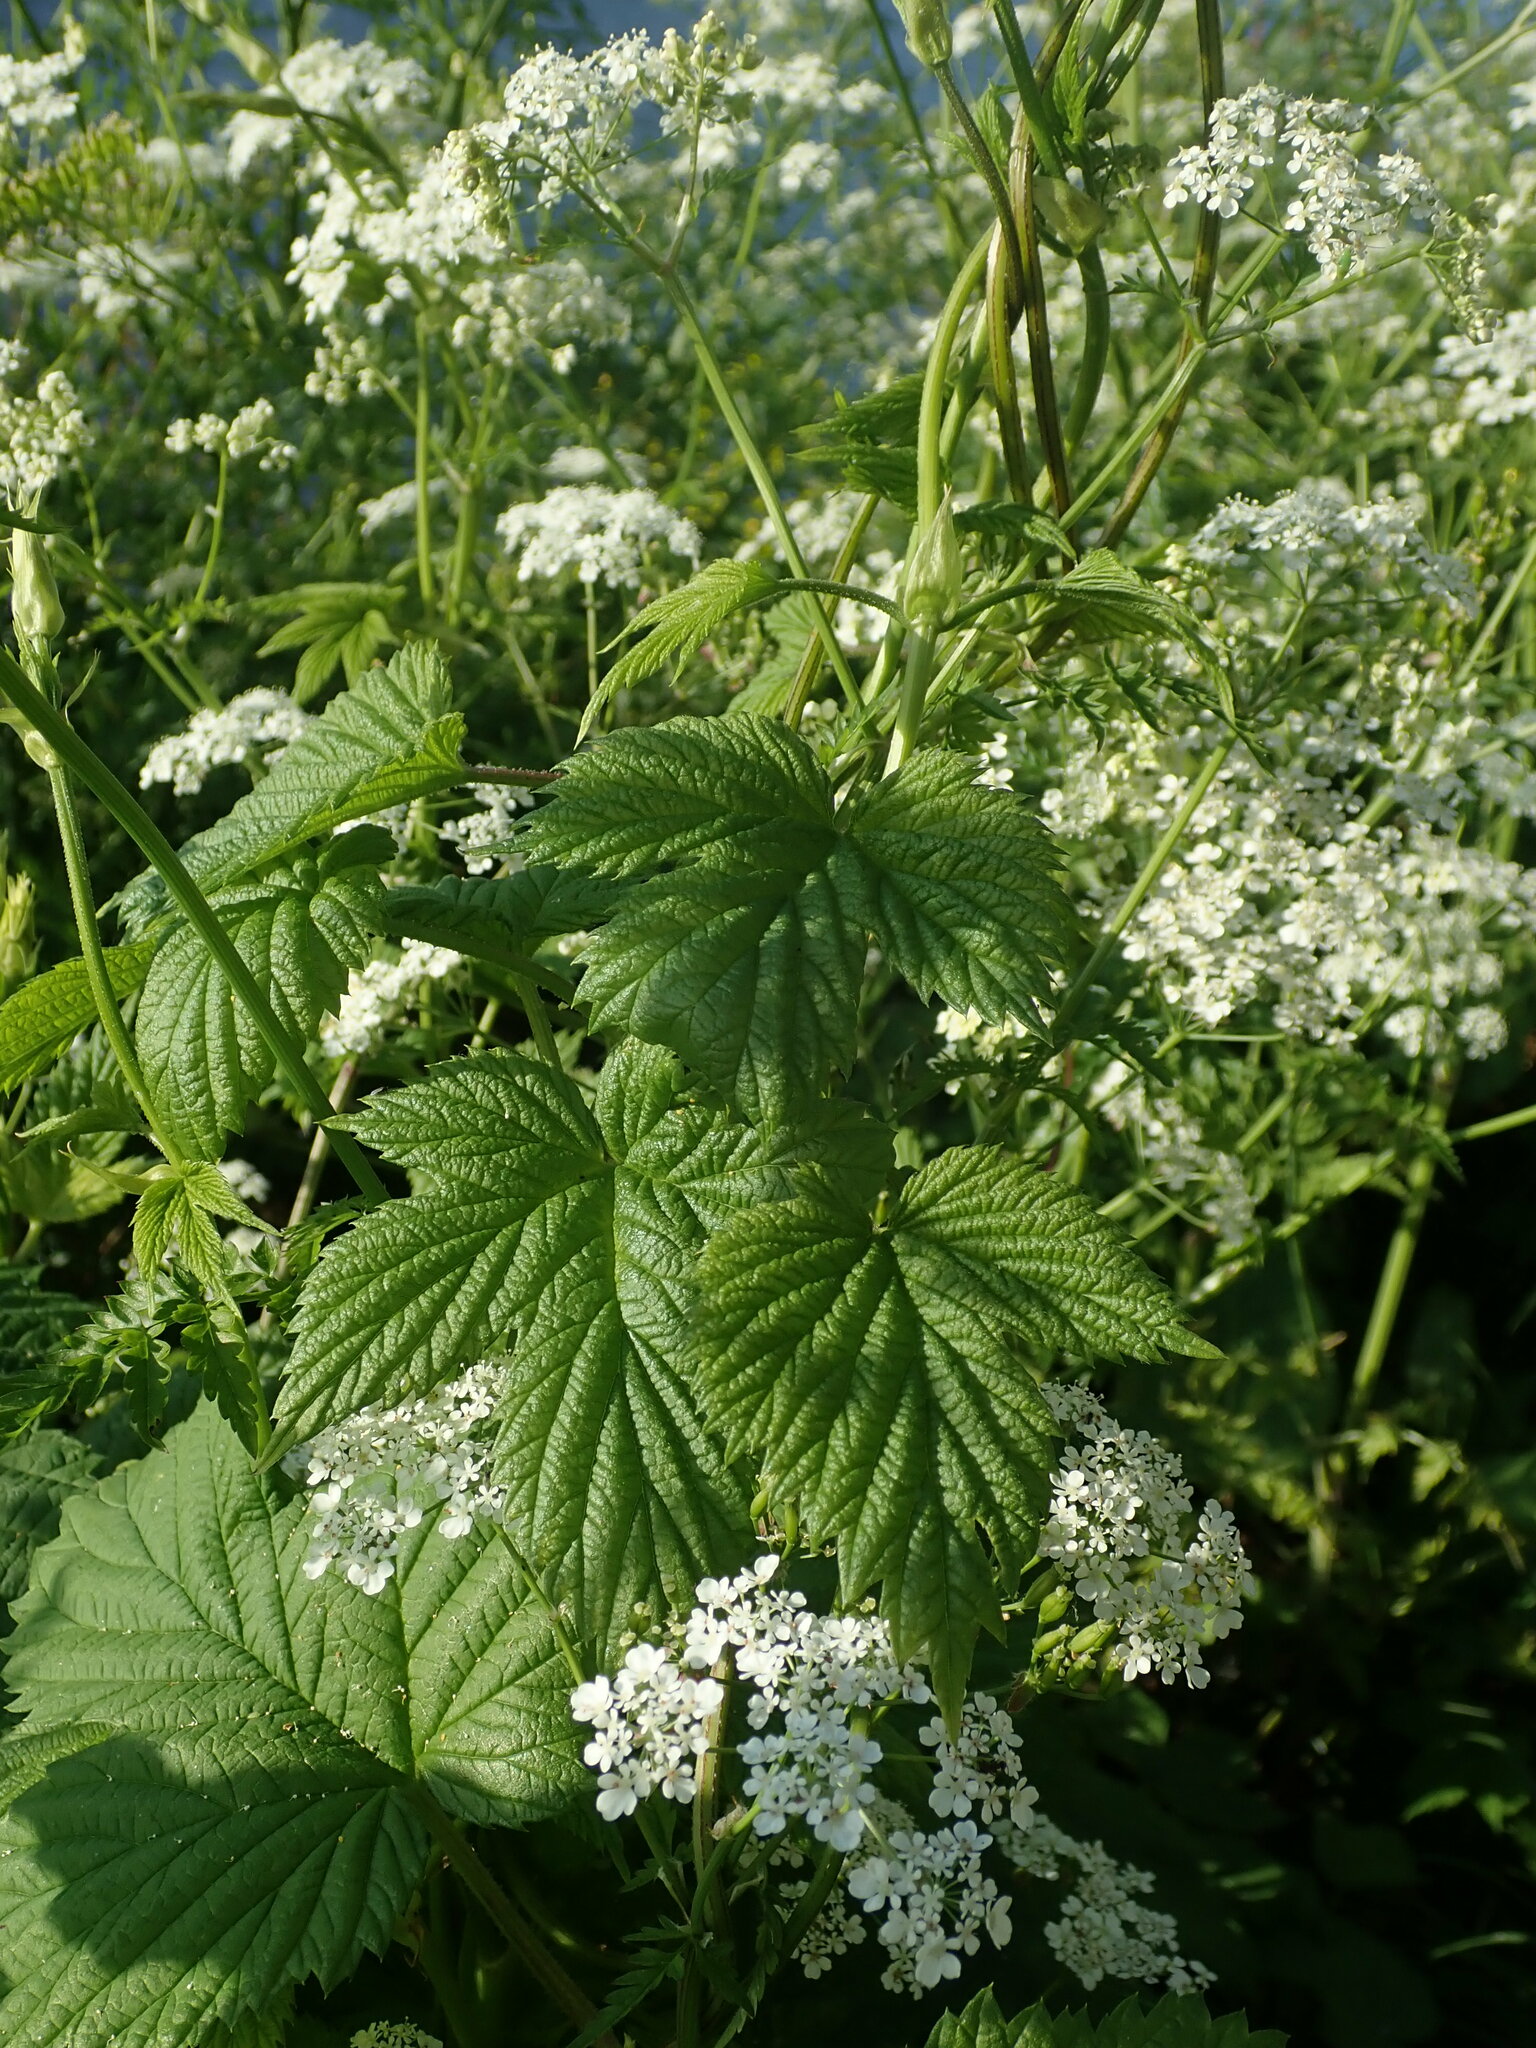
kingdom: Plantae
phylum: Tracheophyta
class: Magnoliopsida
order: Rosales
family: Cannabaceae
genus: Humulus
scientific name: Humulus lupulus
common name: Hop
